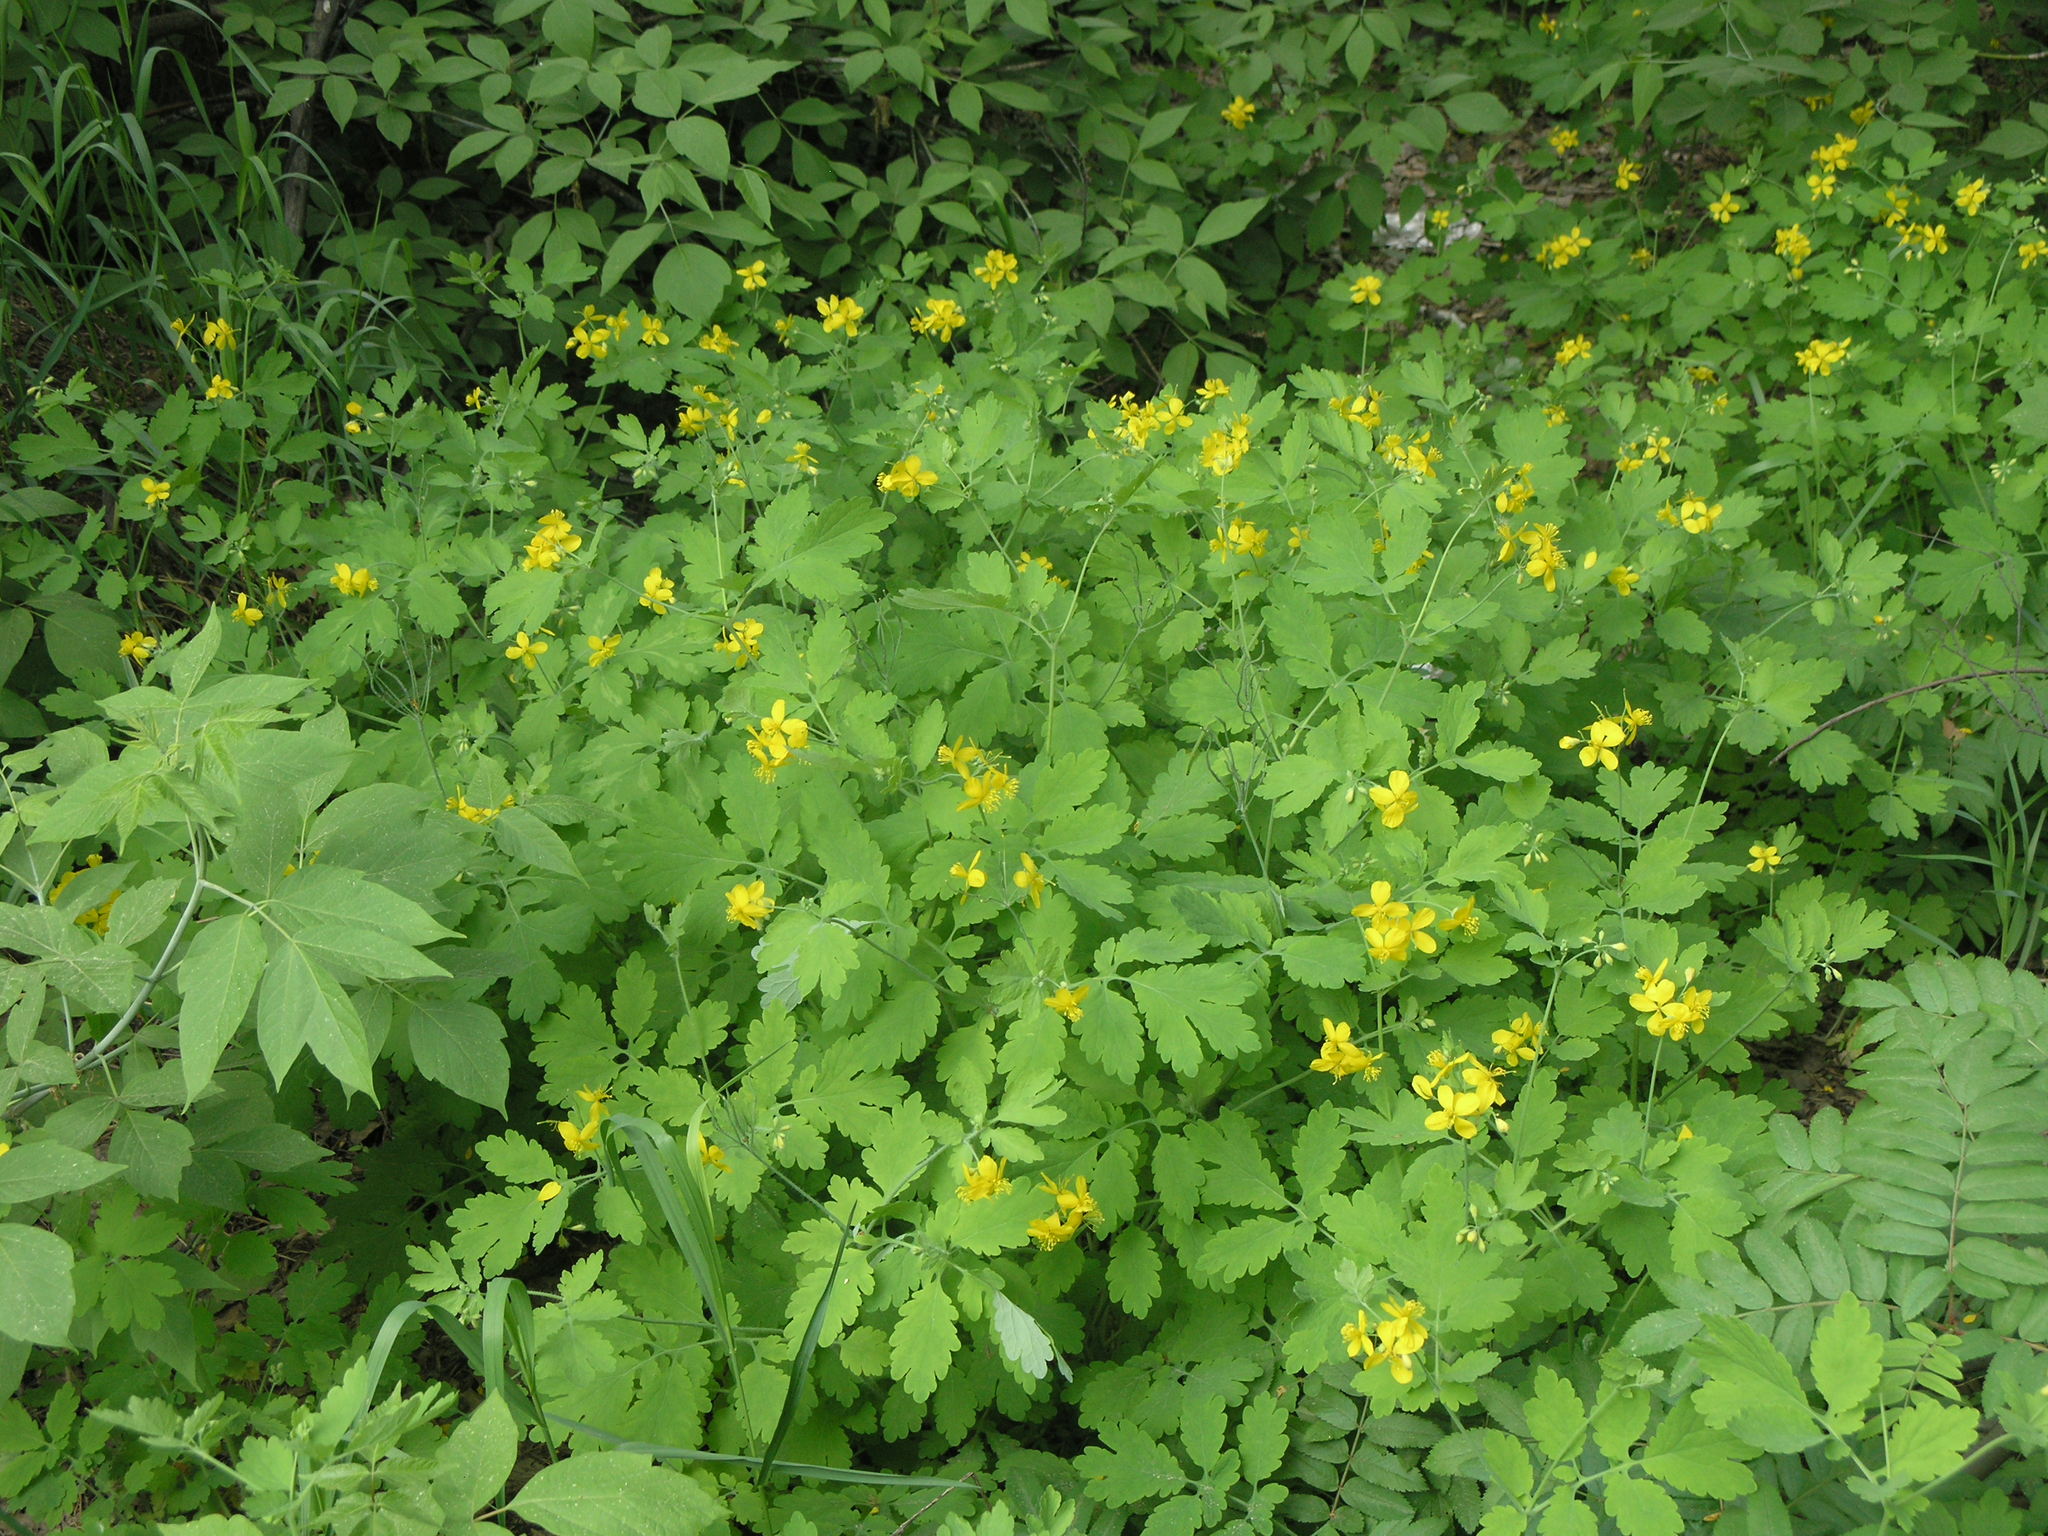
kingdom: Plantae
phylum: Tracheophyta
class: Magnoliopsida
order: Ranunculales
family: Papaveraceae
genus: Chelidonium
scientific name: Chelidonium majus
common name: Greater celandine
